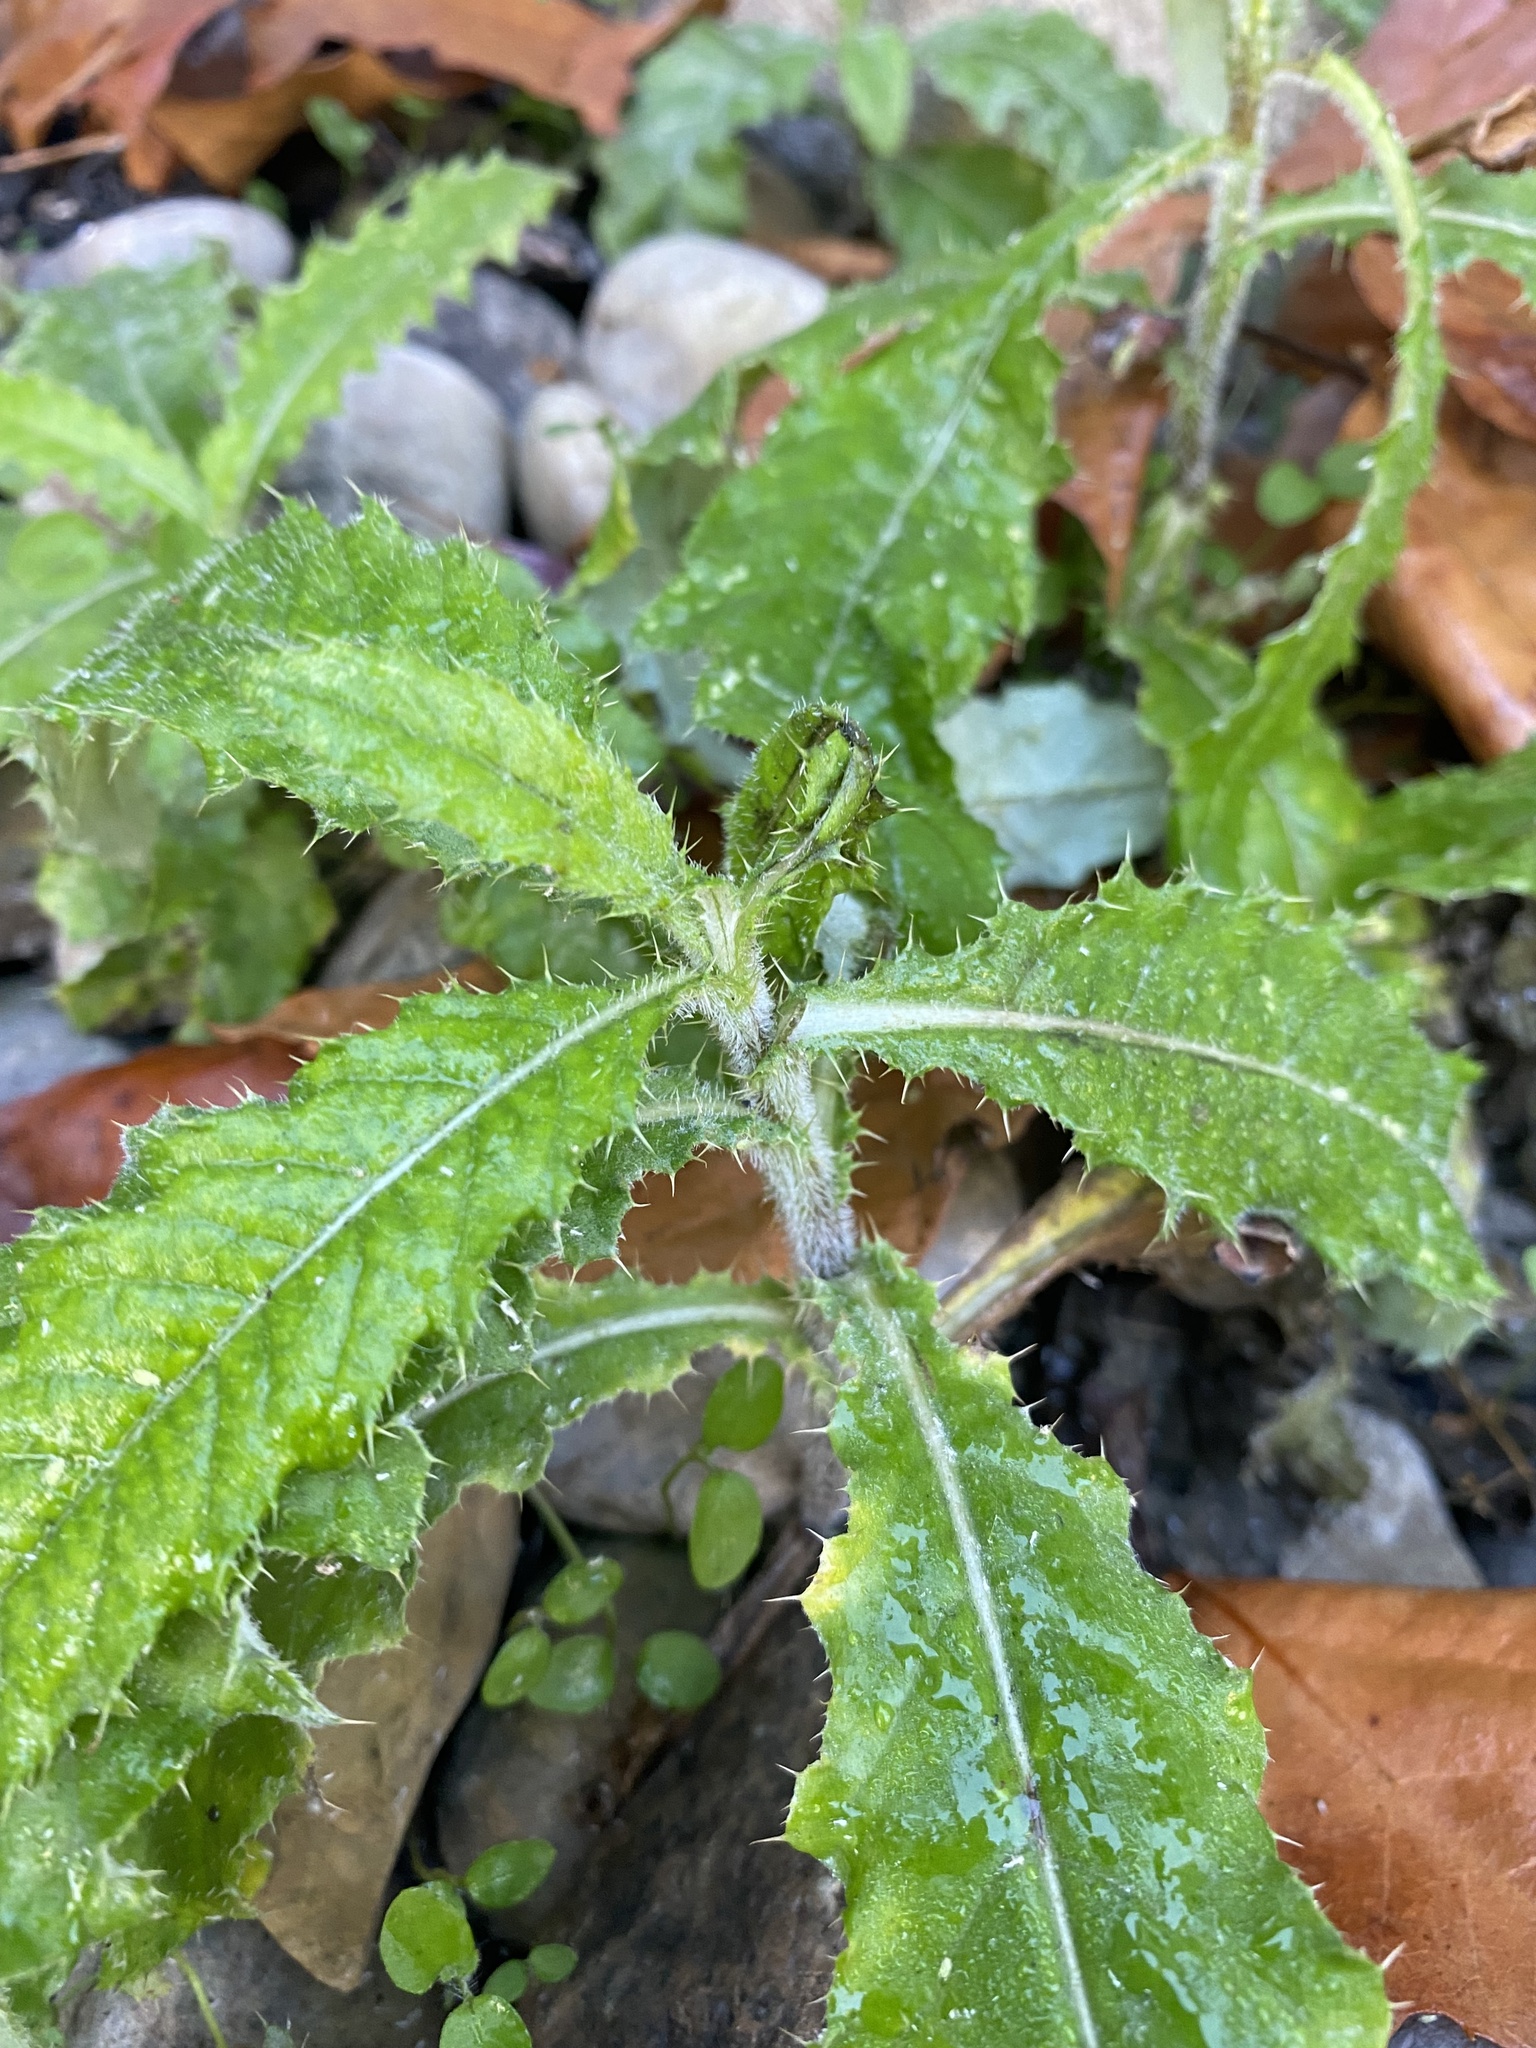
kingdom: Plantae
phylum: Tracheophyta
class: Magnoliopsida
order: Asterales
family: Asteraceae
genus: Cirsium
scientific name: Cirsium arvense
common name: Creeping thistle
